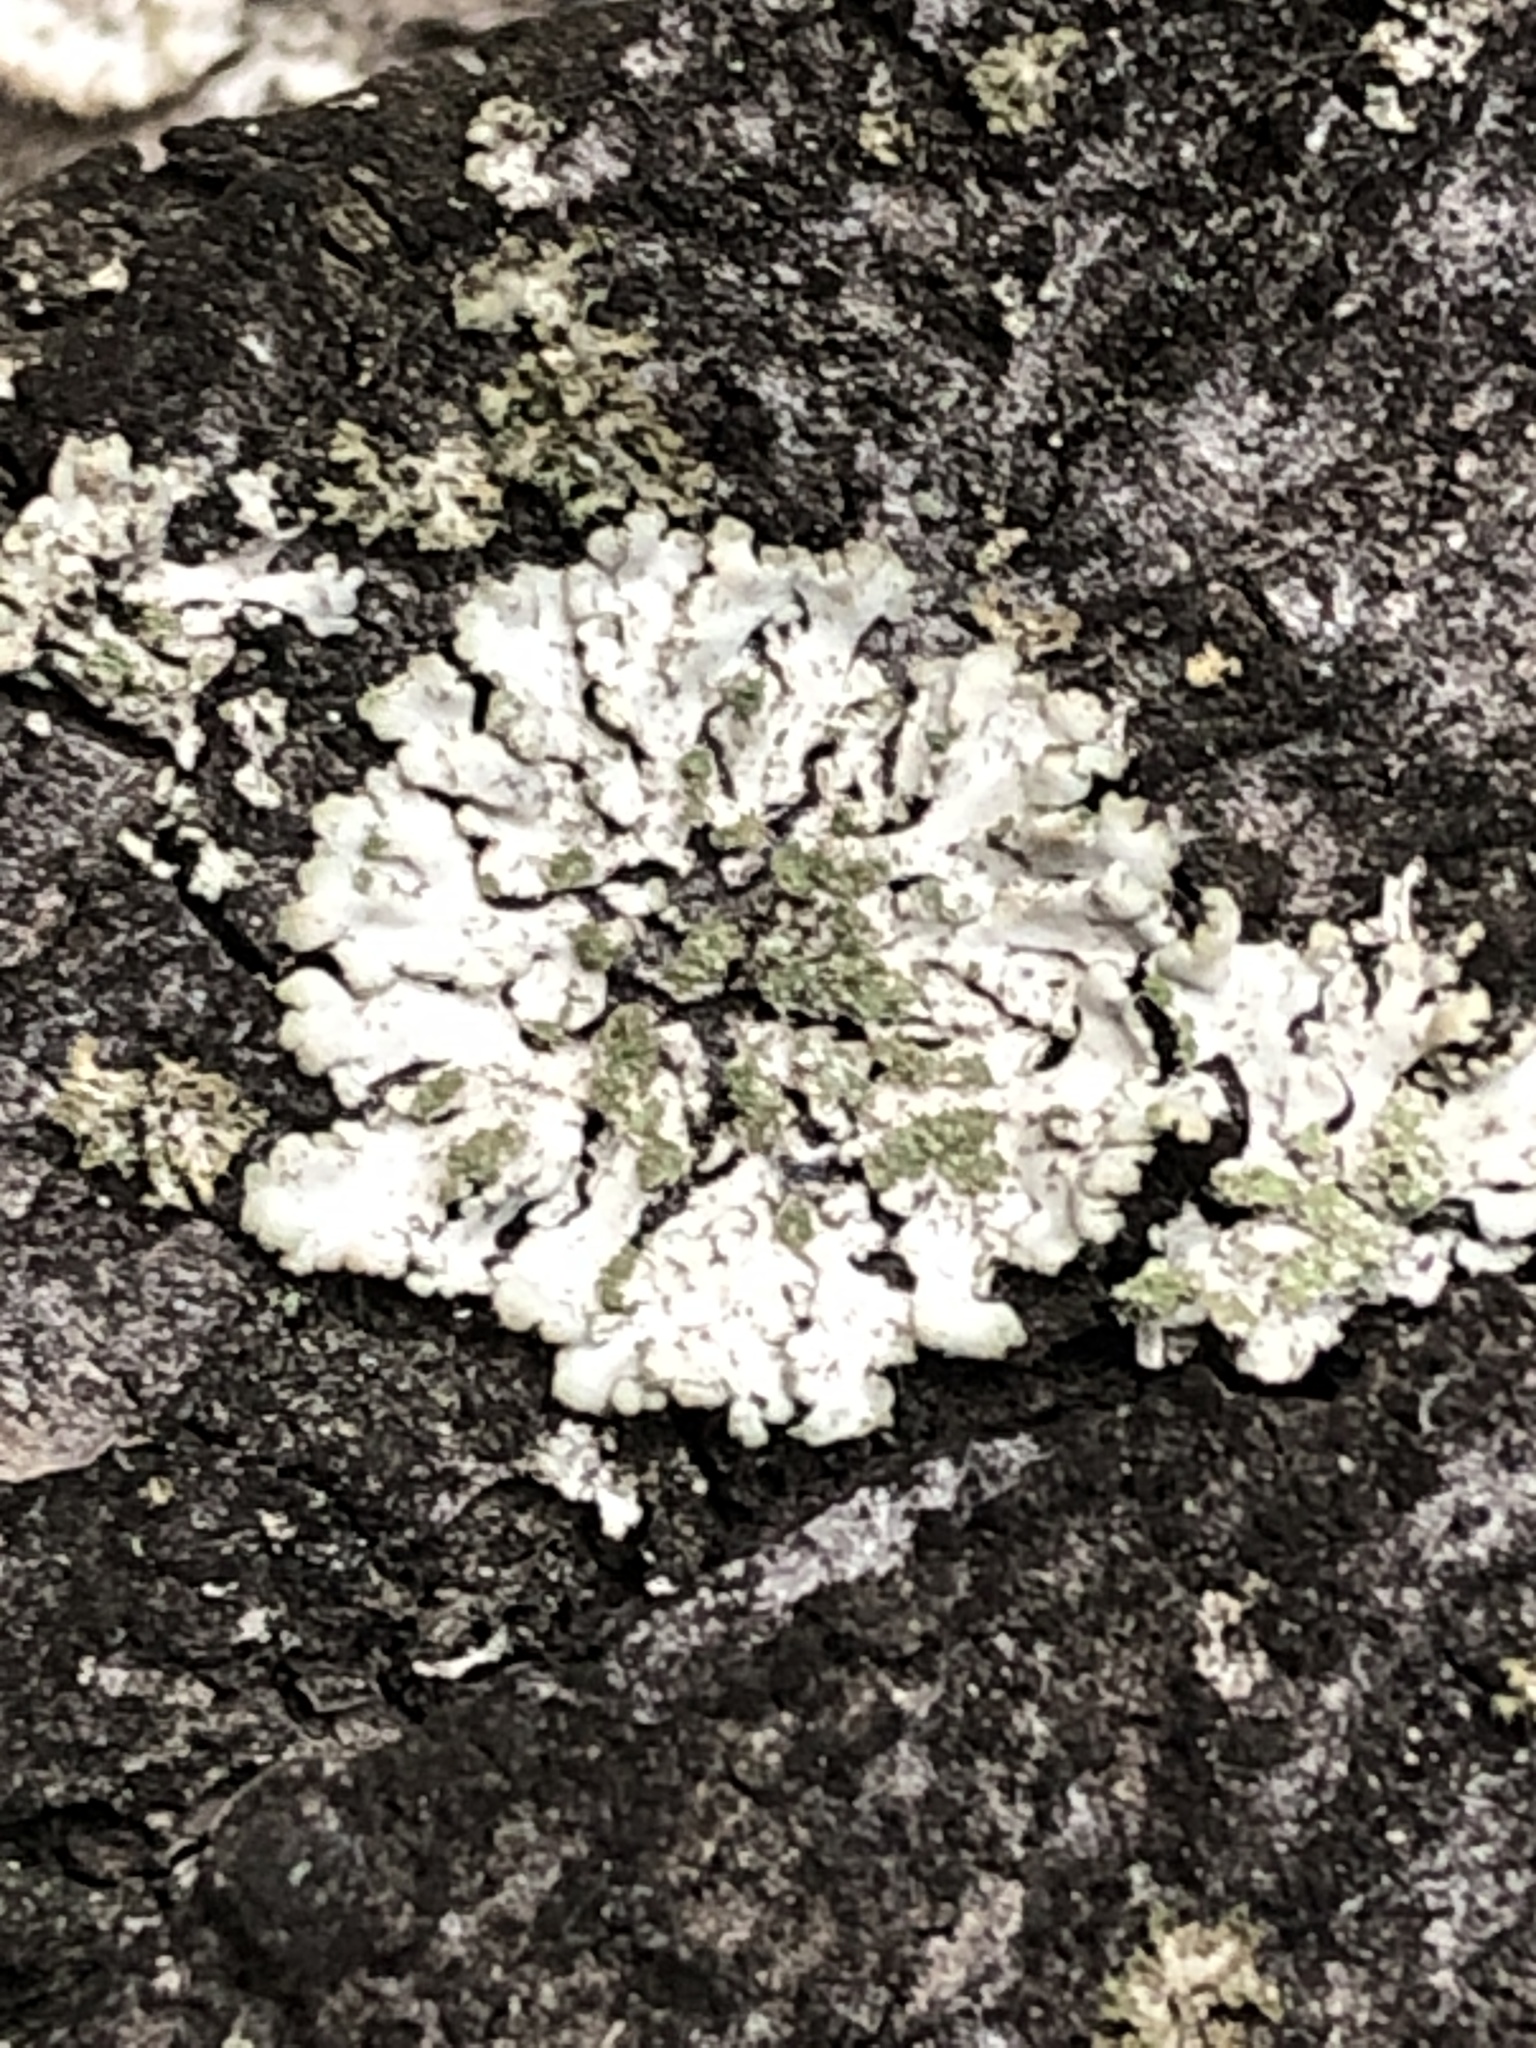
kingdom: Fungi
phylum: Ascomycota
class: Lecanoromycetes
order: Caliciales
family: Physciaceae
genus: Phaeophyscia
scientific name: Phaeophyscia orbicularis
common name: Mealy shadow lichen
